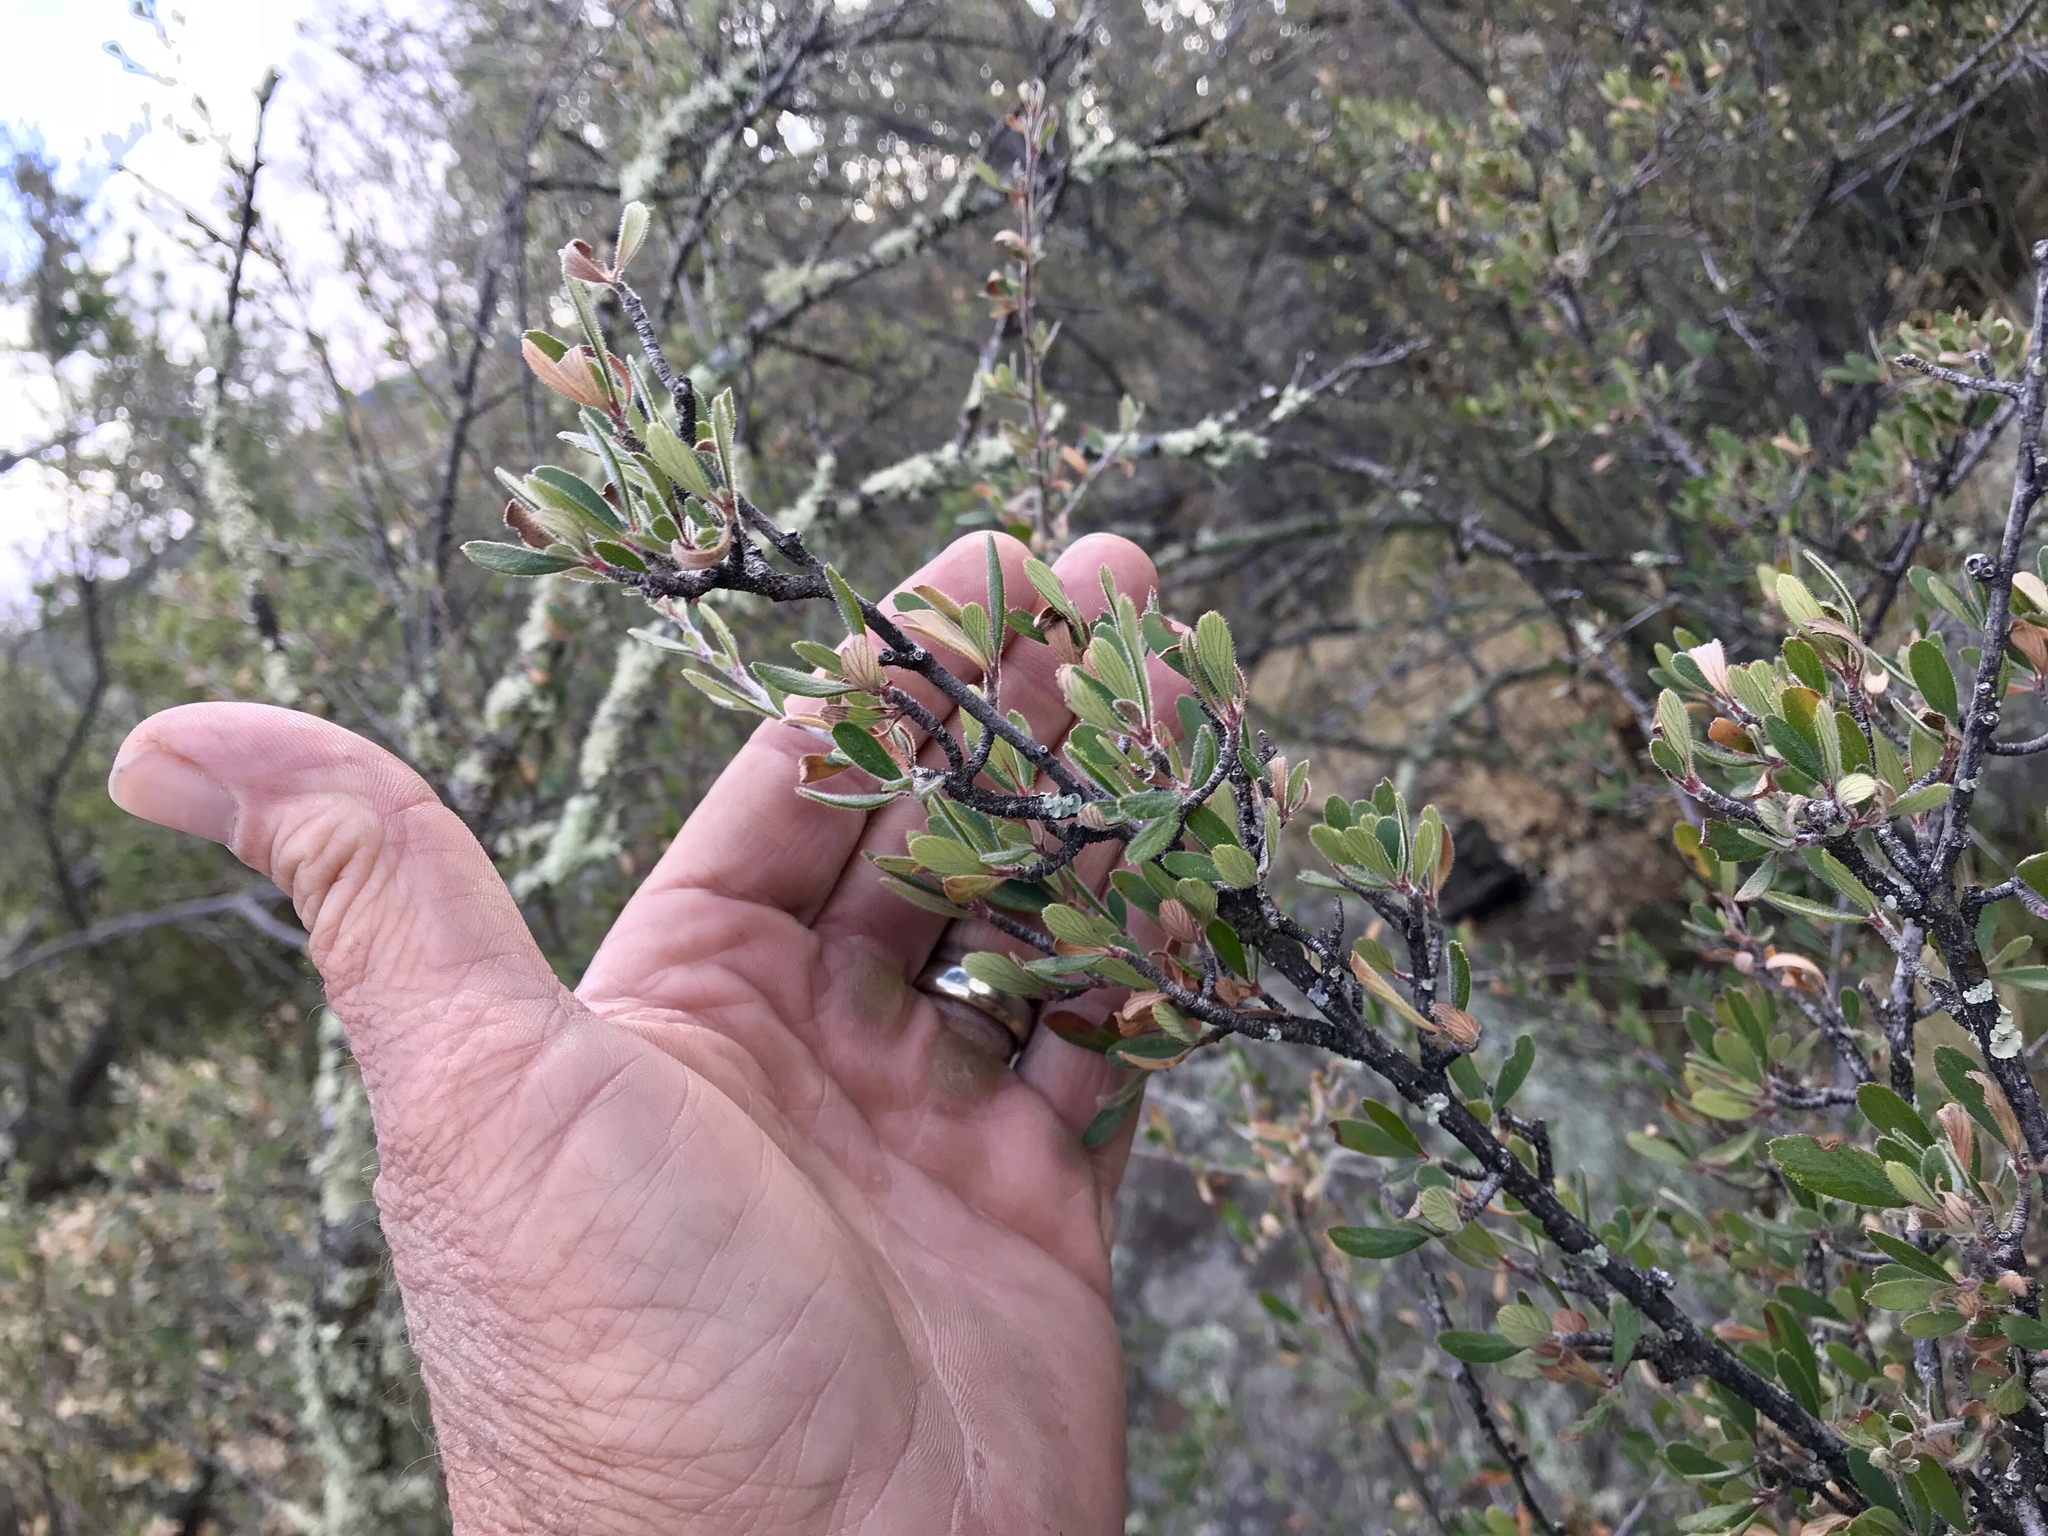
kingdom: Plantae
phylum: Tracheophyta
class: Magnoliopsida
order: Rosales
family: Rosaceae
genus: Cercocarpus
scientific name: Cercocarpus breviflorus
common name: Wright's mountain-mahogany
